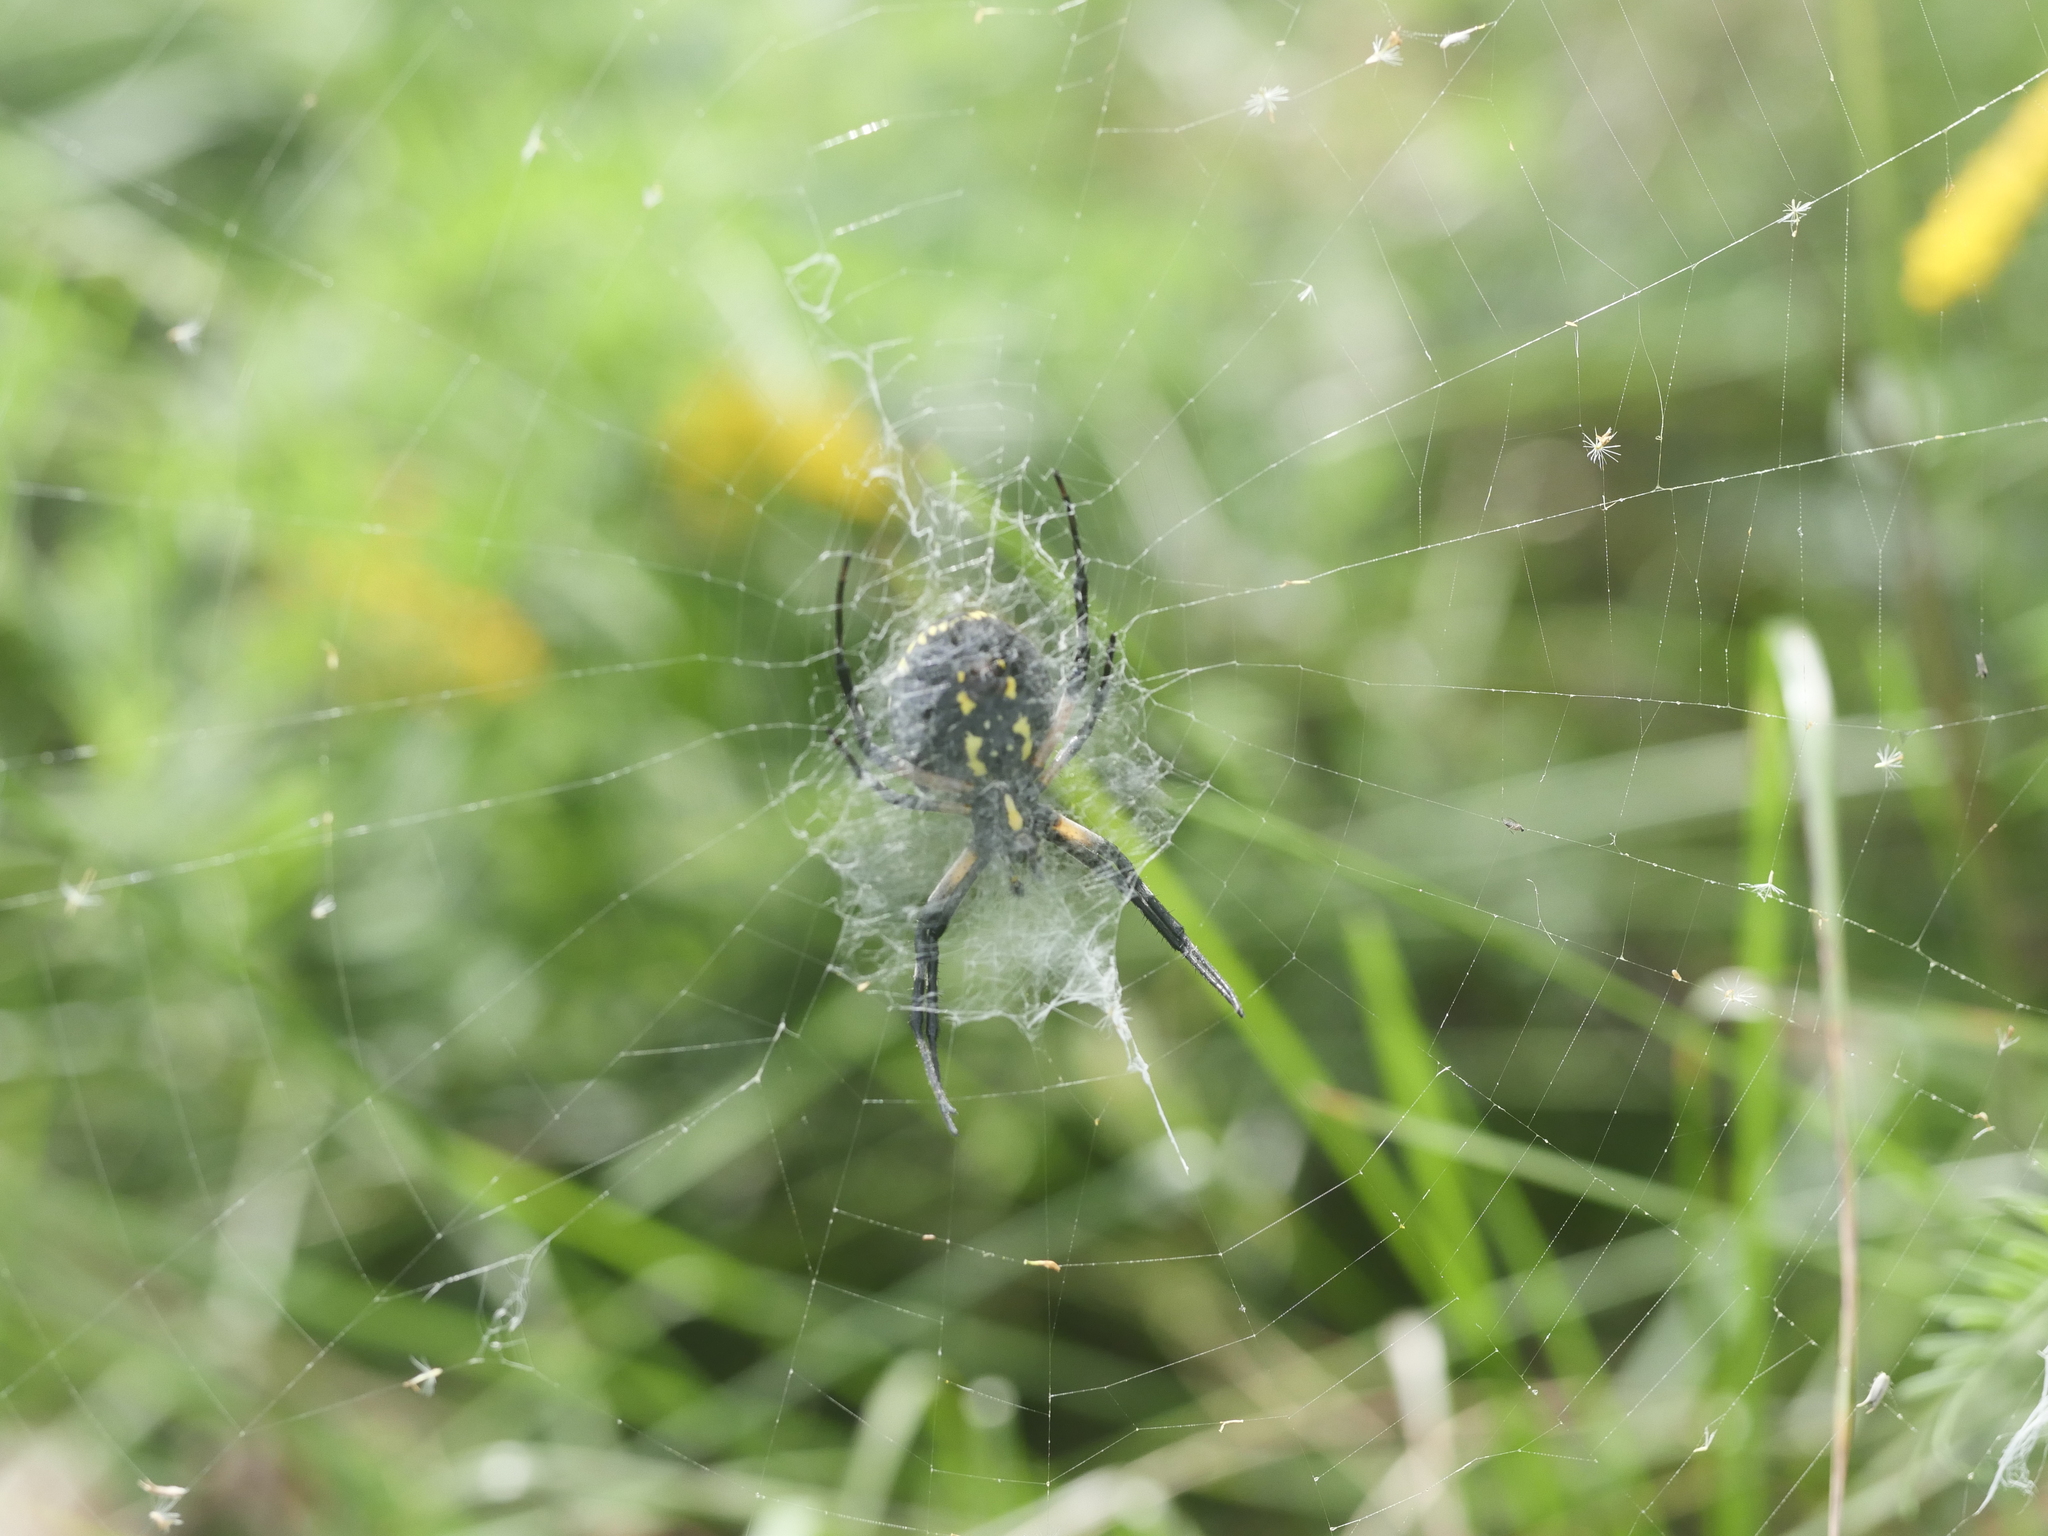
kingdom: Animalia
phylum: Arthropoda
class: Arachnida
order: Araneae
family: Araneidae
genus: Argiope
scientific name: Argiope aurantia
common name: Orb weavers
